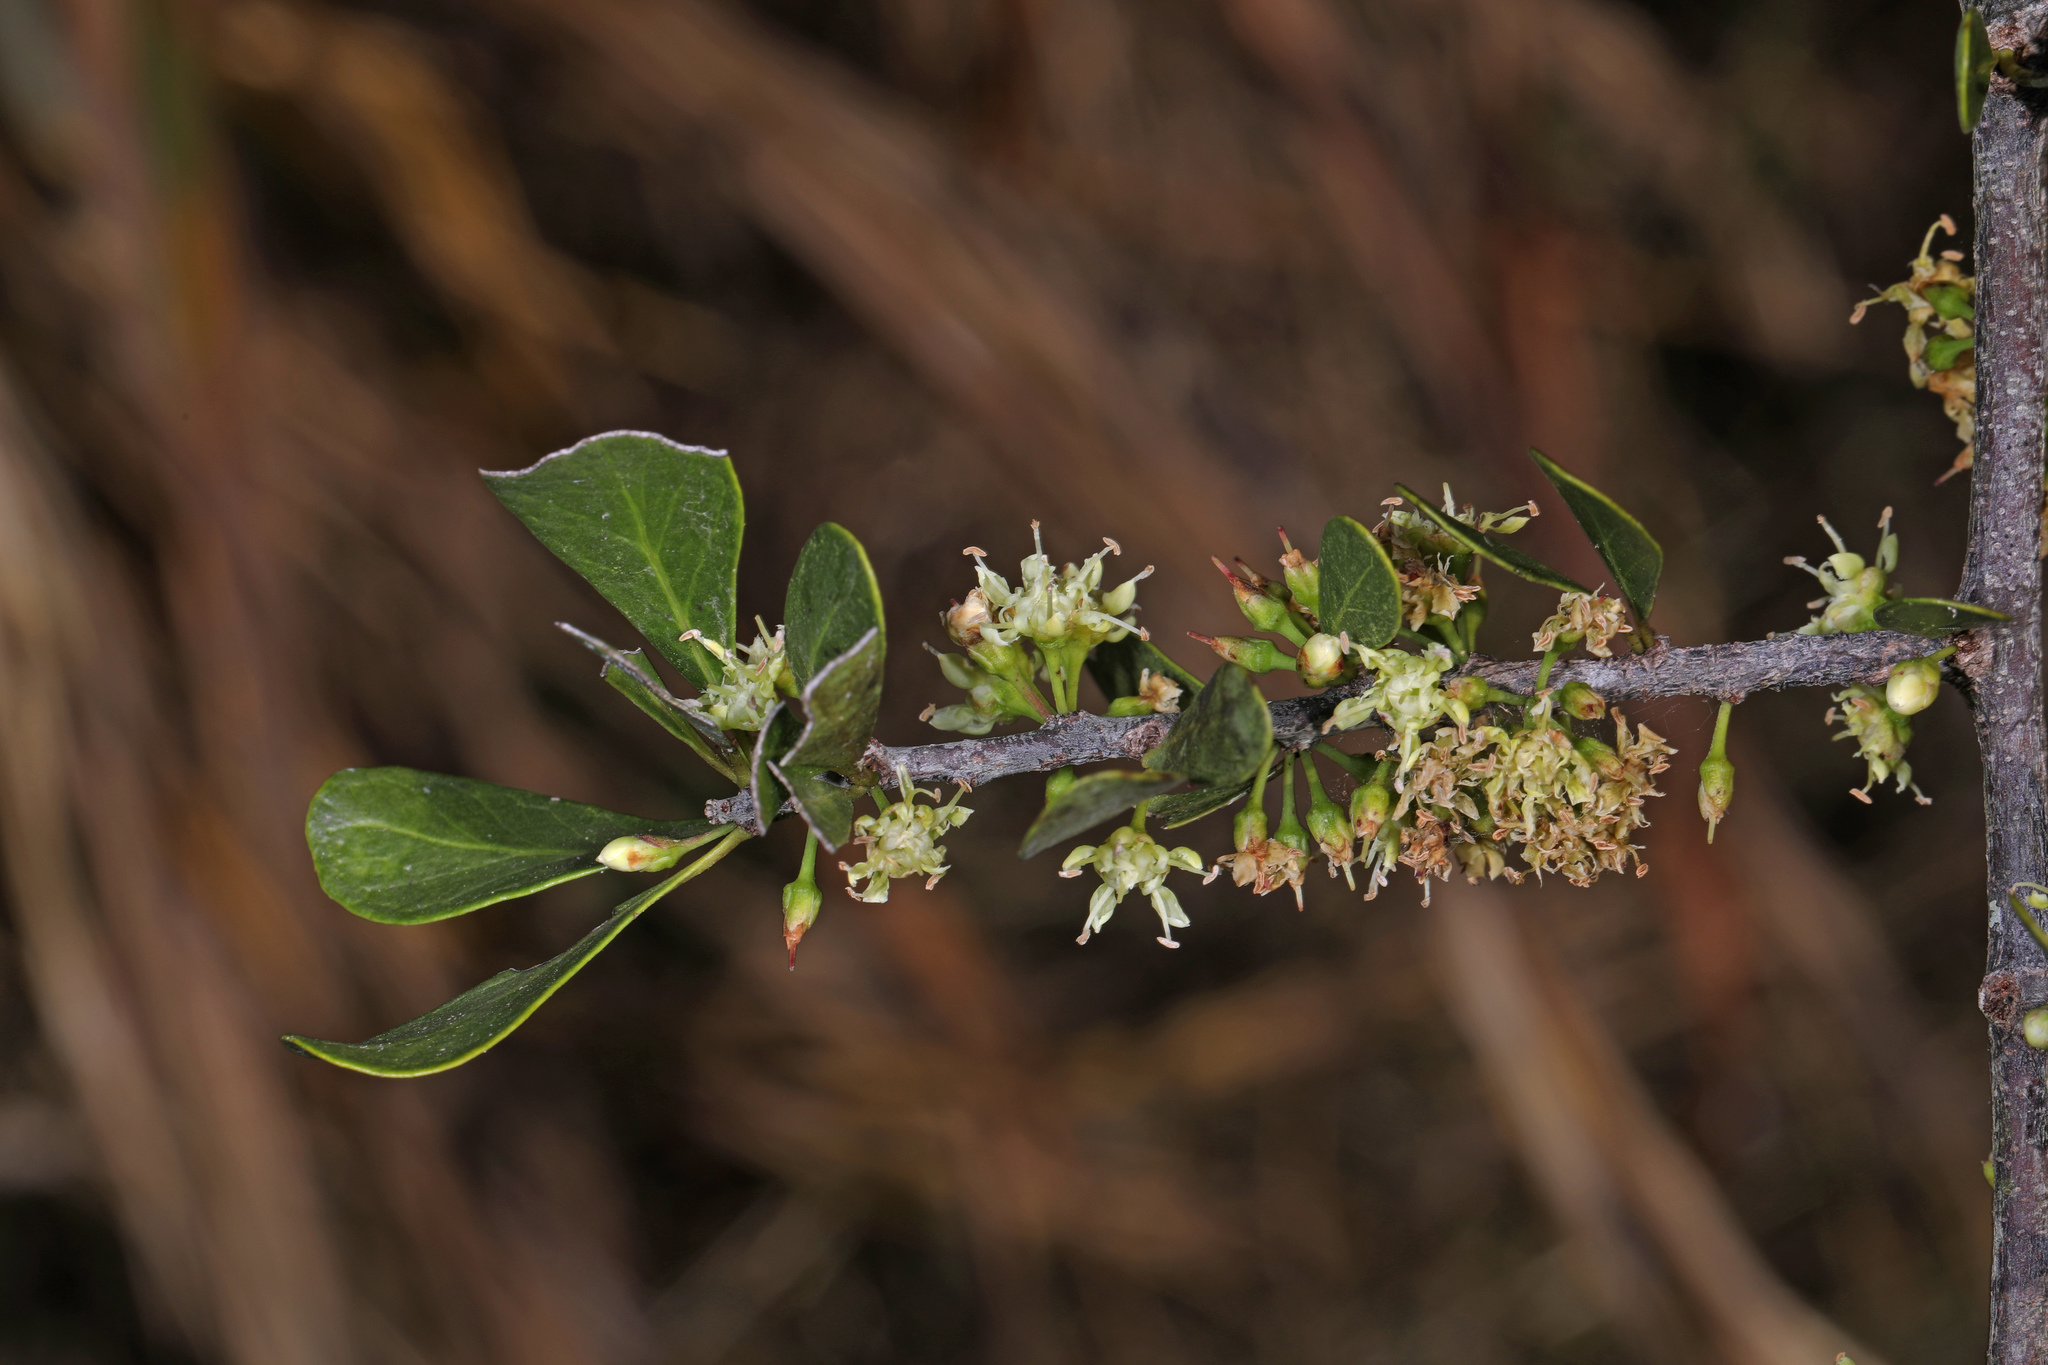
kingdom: Plantae
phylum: Tracheophyta
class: Magnoliopsida
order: Ericales
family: Sapotaceae
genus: Sideroxylon
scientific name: Sideroxylon reclinatum
